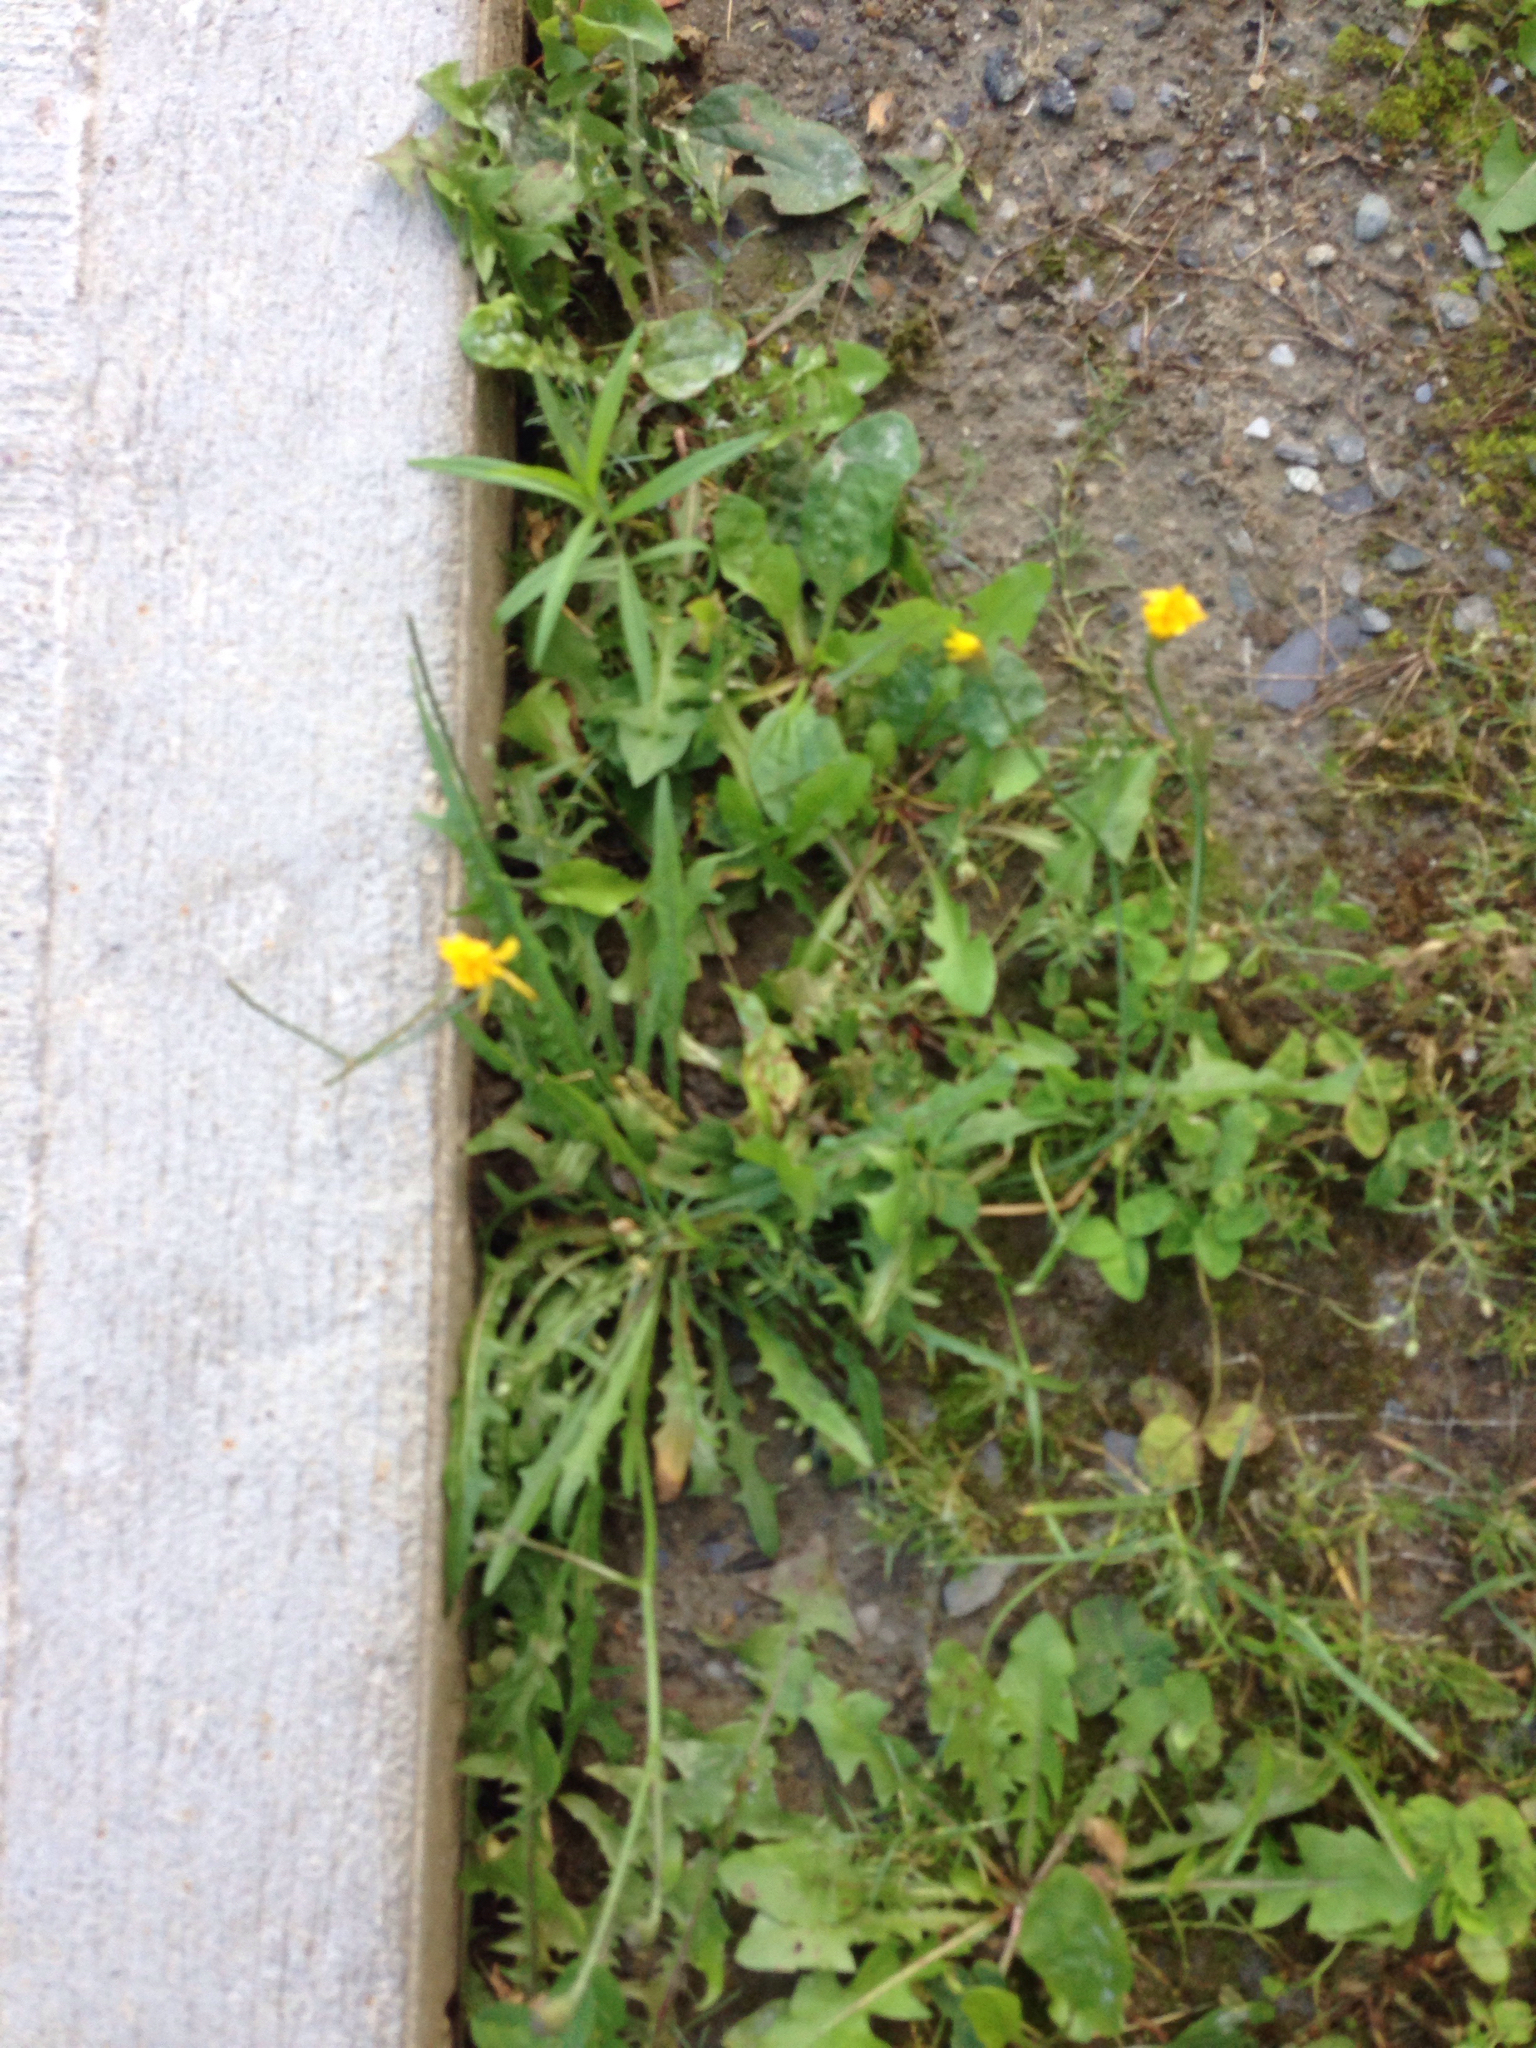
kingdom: Plantae
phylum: Tracheophyta
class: Magnoliopsida
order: Asterales
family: Asteraceae
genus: Scorzoneroides
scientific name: Scorzoneroides autumnalis
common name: Autumn hawkbit
